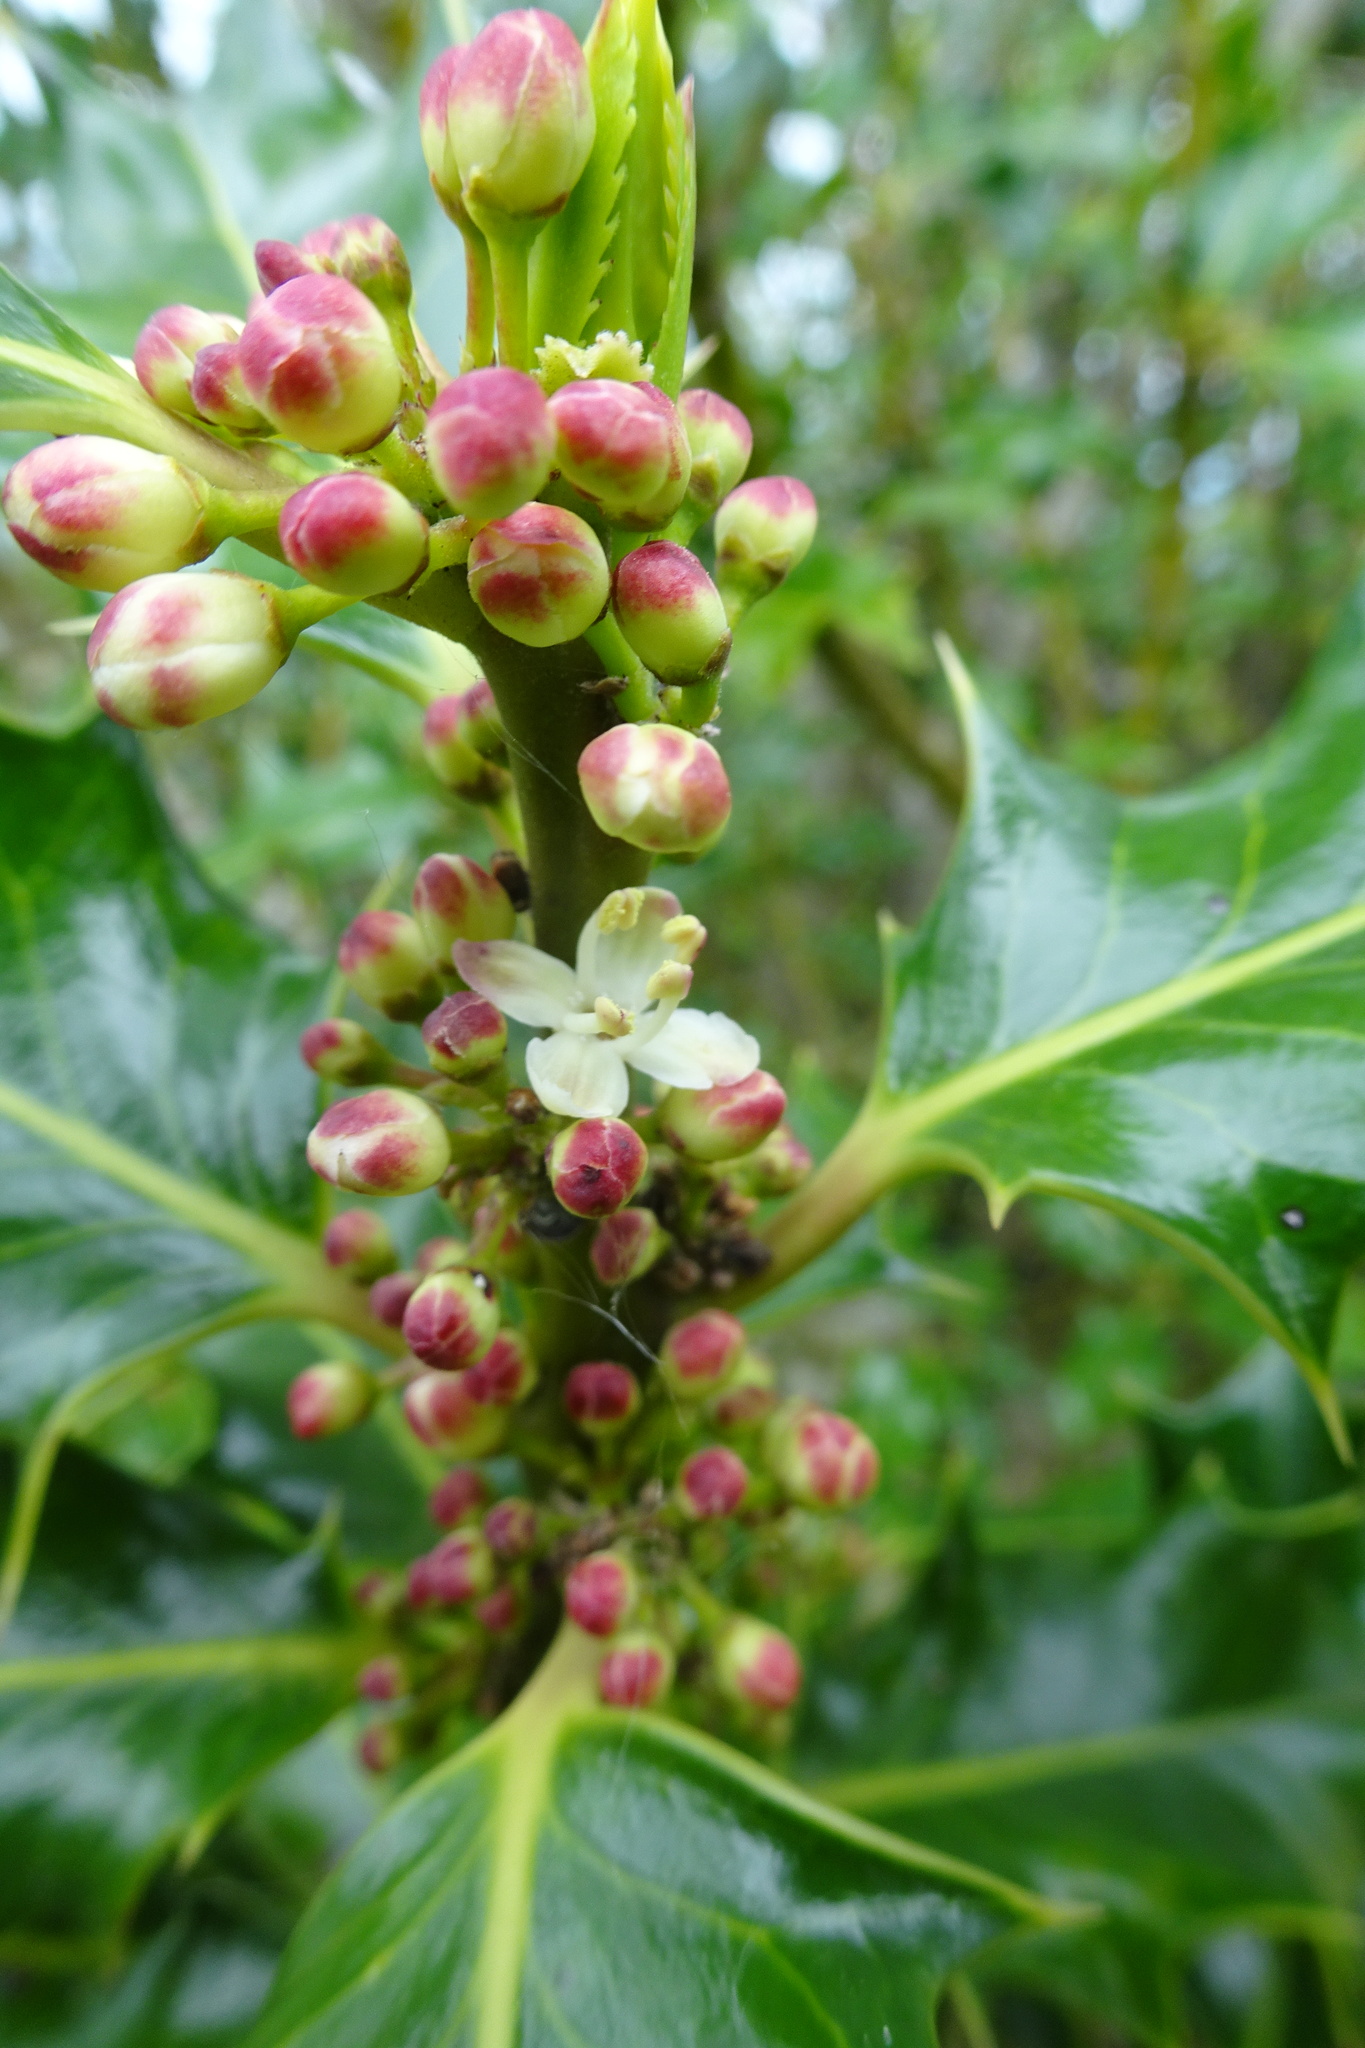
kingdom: Plantae
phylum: Tracheophyta
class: Magnoliopsida
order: Aquifoliales
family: Aquifoliaceae
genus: Ilex
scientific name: Ilex aquifolium
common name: English holly
